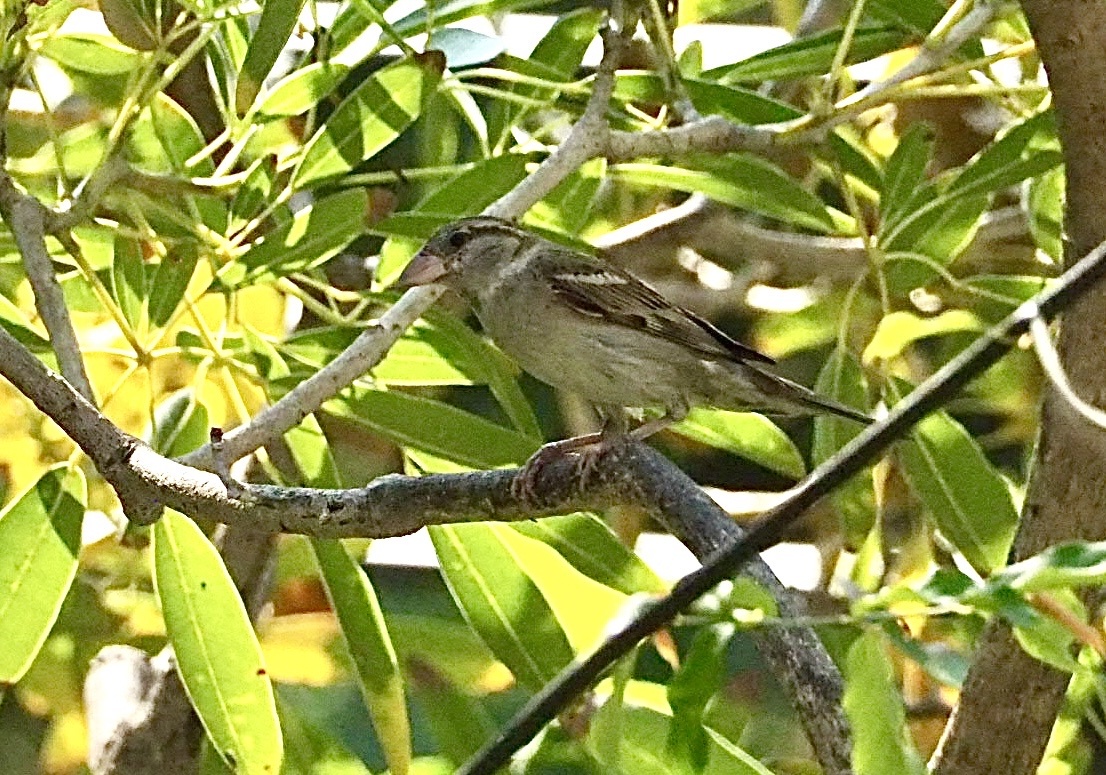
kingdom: Animalia
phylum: Chordata
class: Aves
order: Passeriformes
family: Passeridae
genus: Passer
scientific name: Passer domesticus
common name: House sparrow
